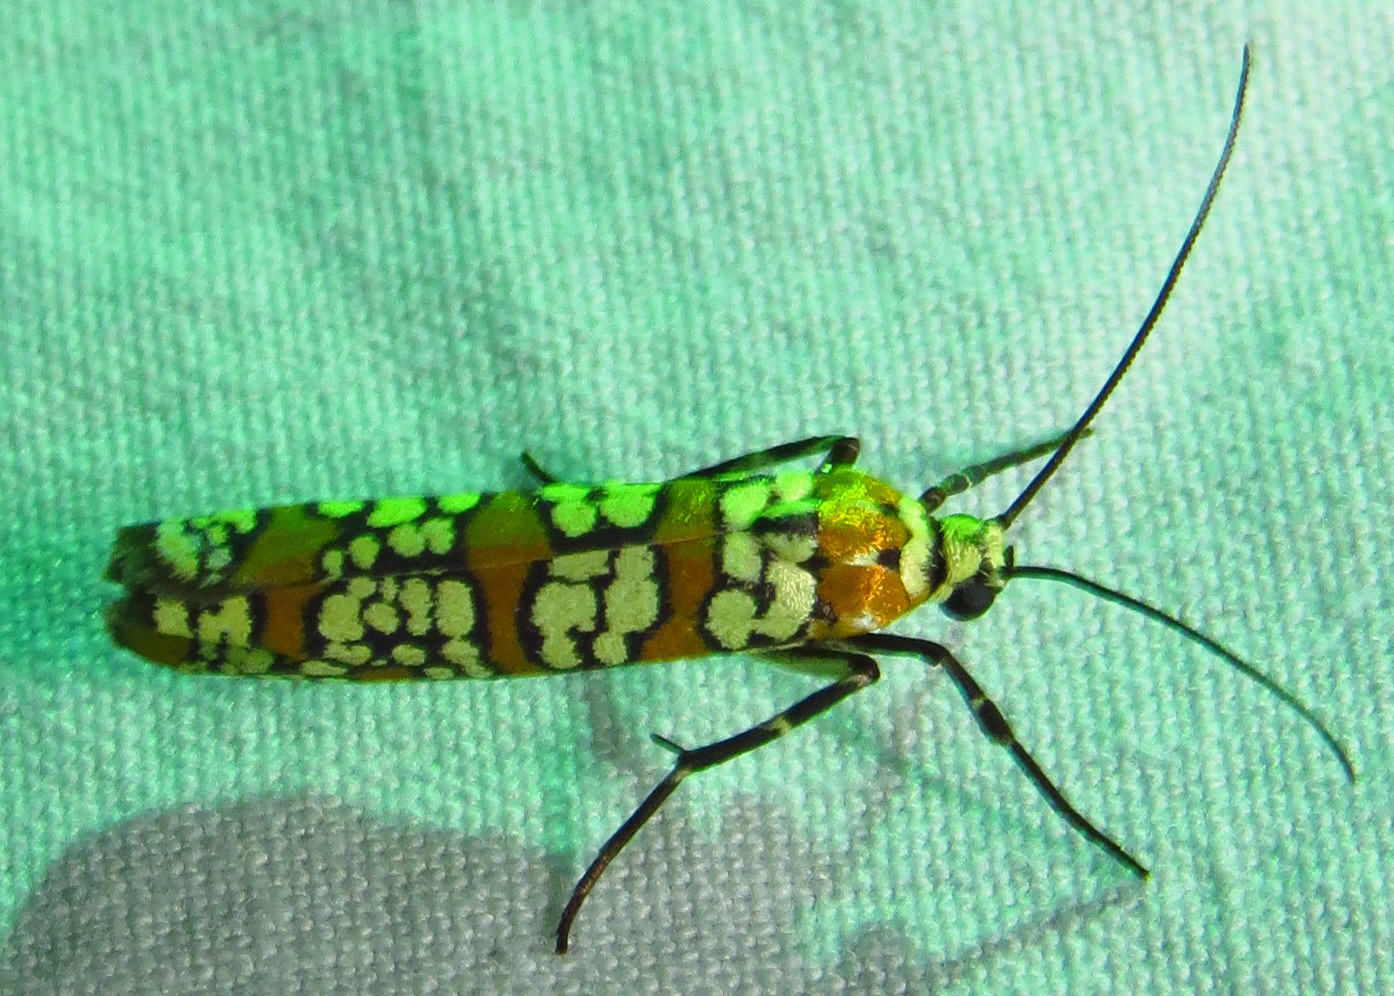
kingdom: Animalia
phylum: Arthropoda
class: Insecta
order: Lepidoptera
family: Attevidae
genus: Atteva
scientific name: Atteva punctella
